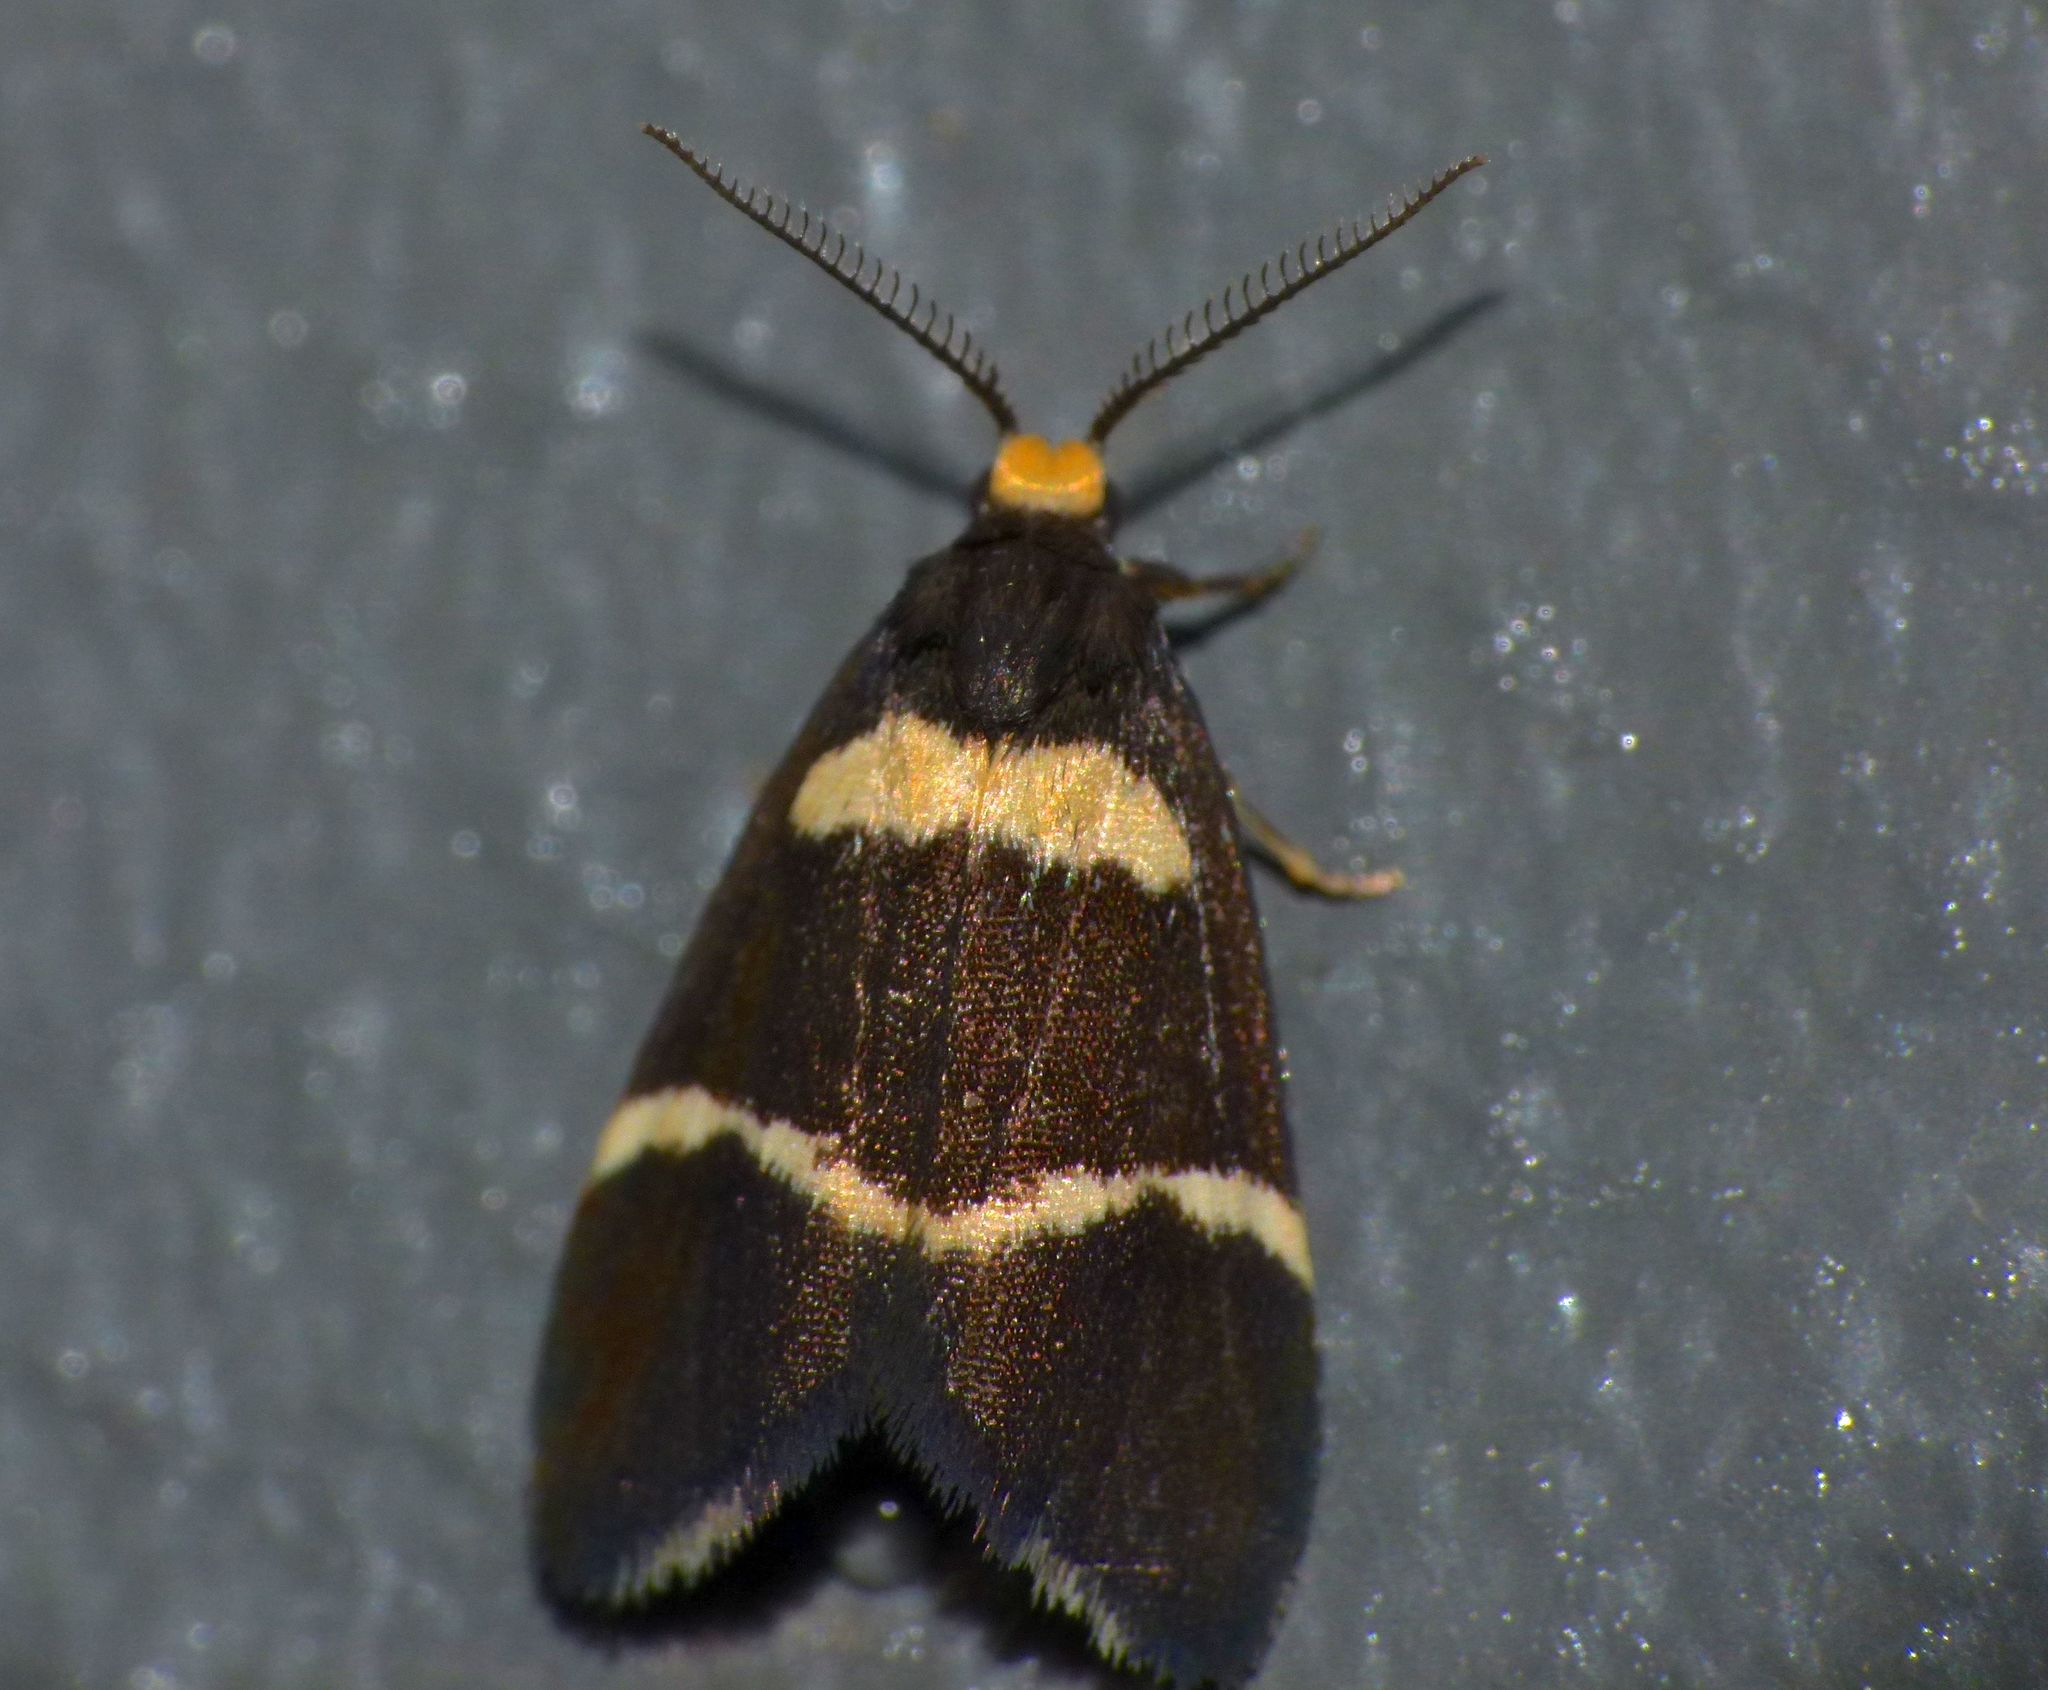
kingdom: Animalia
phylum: Arthropoda
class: Insecta
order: Lepidoptera
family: Erebidae
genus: Thallarcha
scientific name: Thallarcha phalarota
